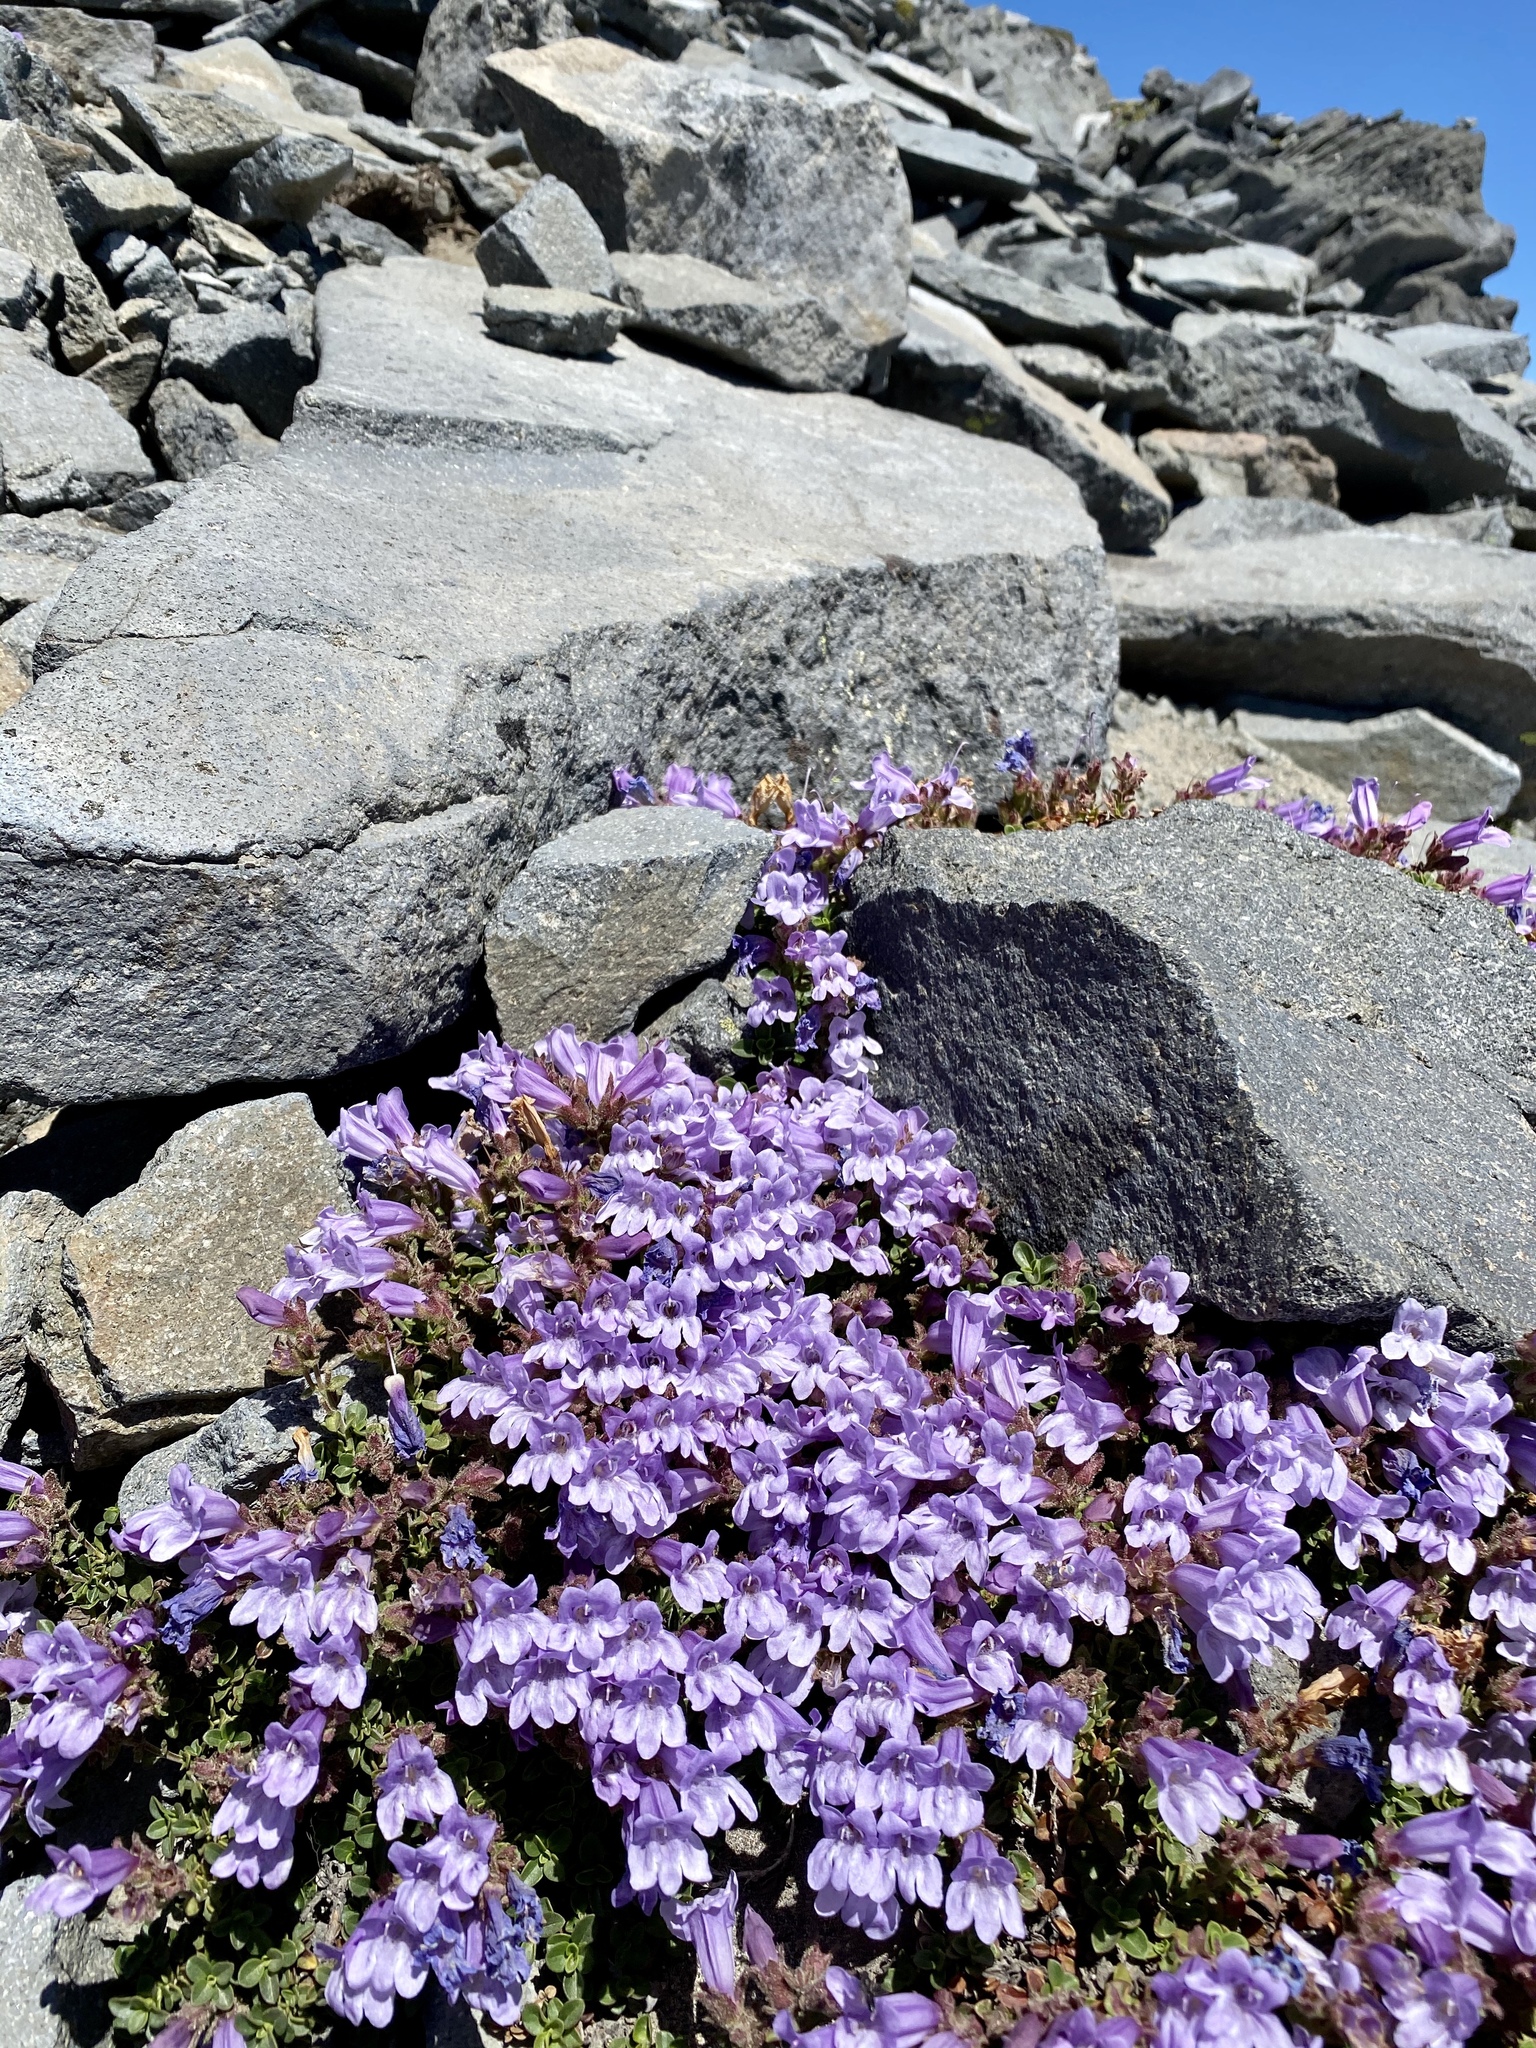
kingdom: Plantae
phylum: Tracheophyta
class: Magnoliopsida
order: Lamiales
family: Plantaginaceae
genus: Penstemon
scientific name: Penstemon davidsonii
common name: Davidson's penstemon
